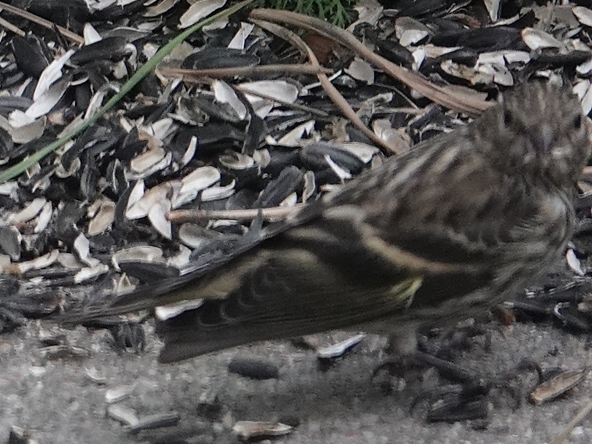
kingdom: Animalia
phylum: Chordata
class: Aves
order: Passeriformes
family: Fringillidae
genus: Spinus
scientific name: Spinus pinus
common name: Pine siskin
